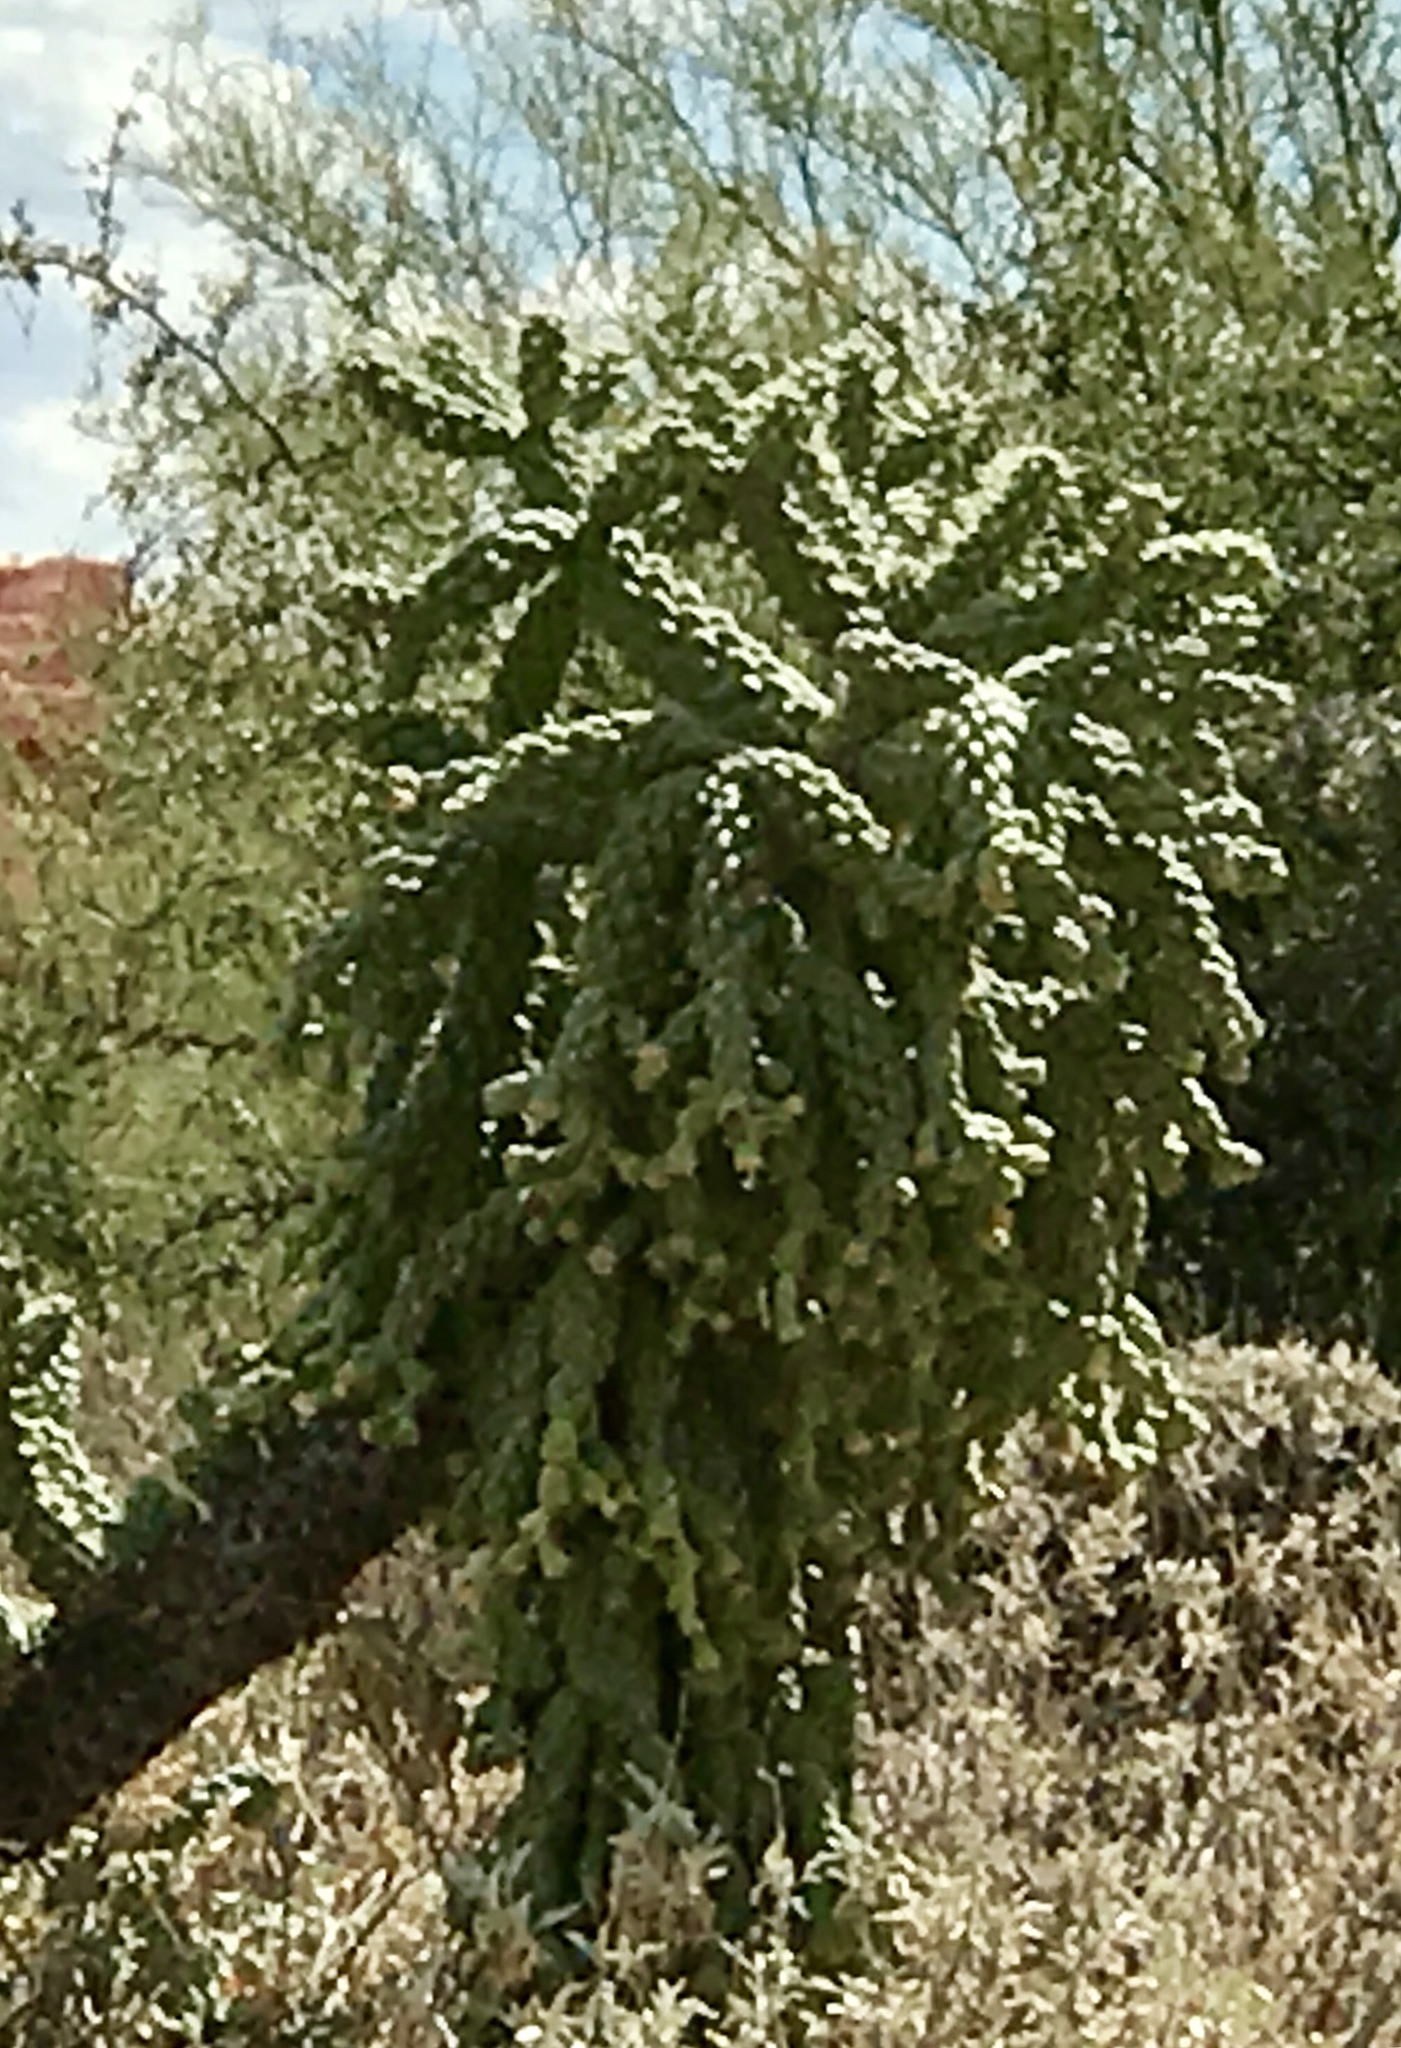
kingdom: Plantae
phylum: Tracheophyta
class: Magnoliopsida
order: Caryophyllales
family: Cactaceae
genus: Cylindropuntia
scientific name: Cylindropuntia fulgida
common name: Jumping cholla
